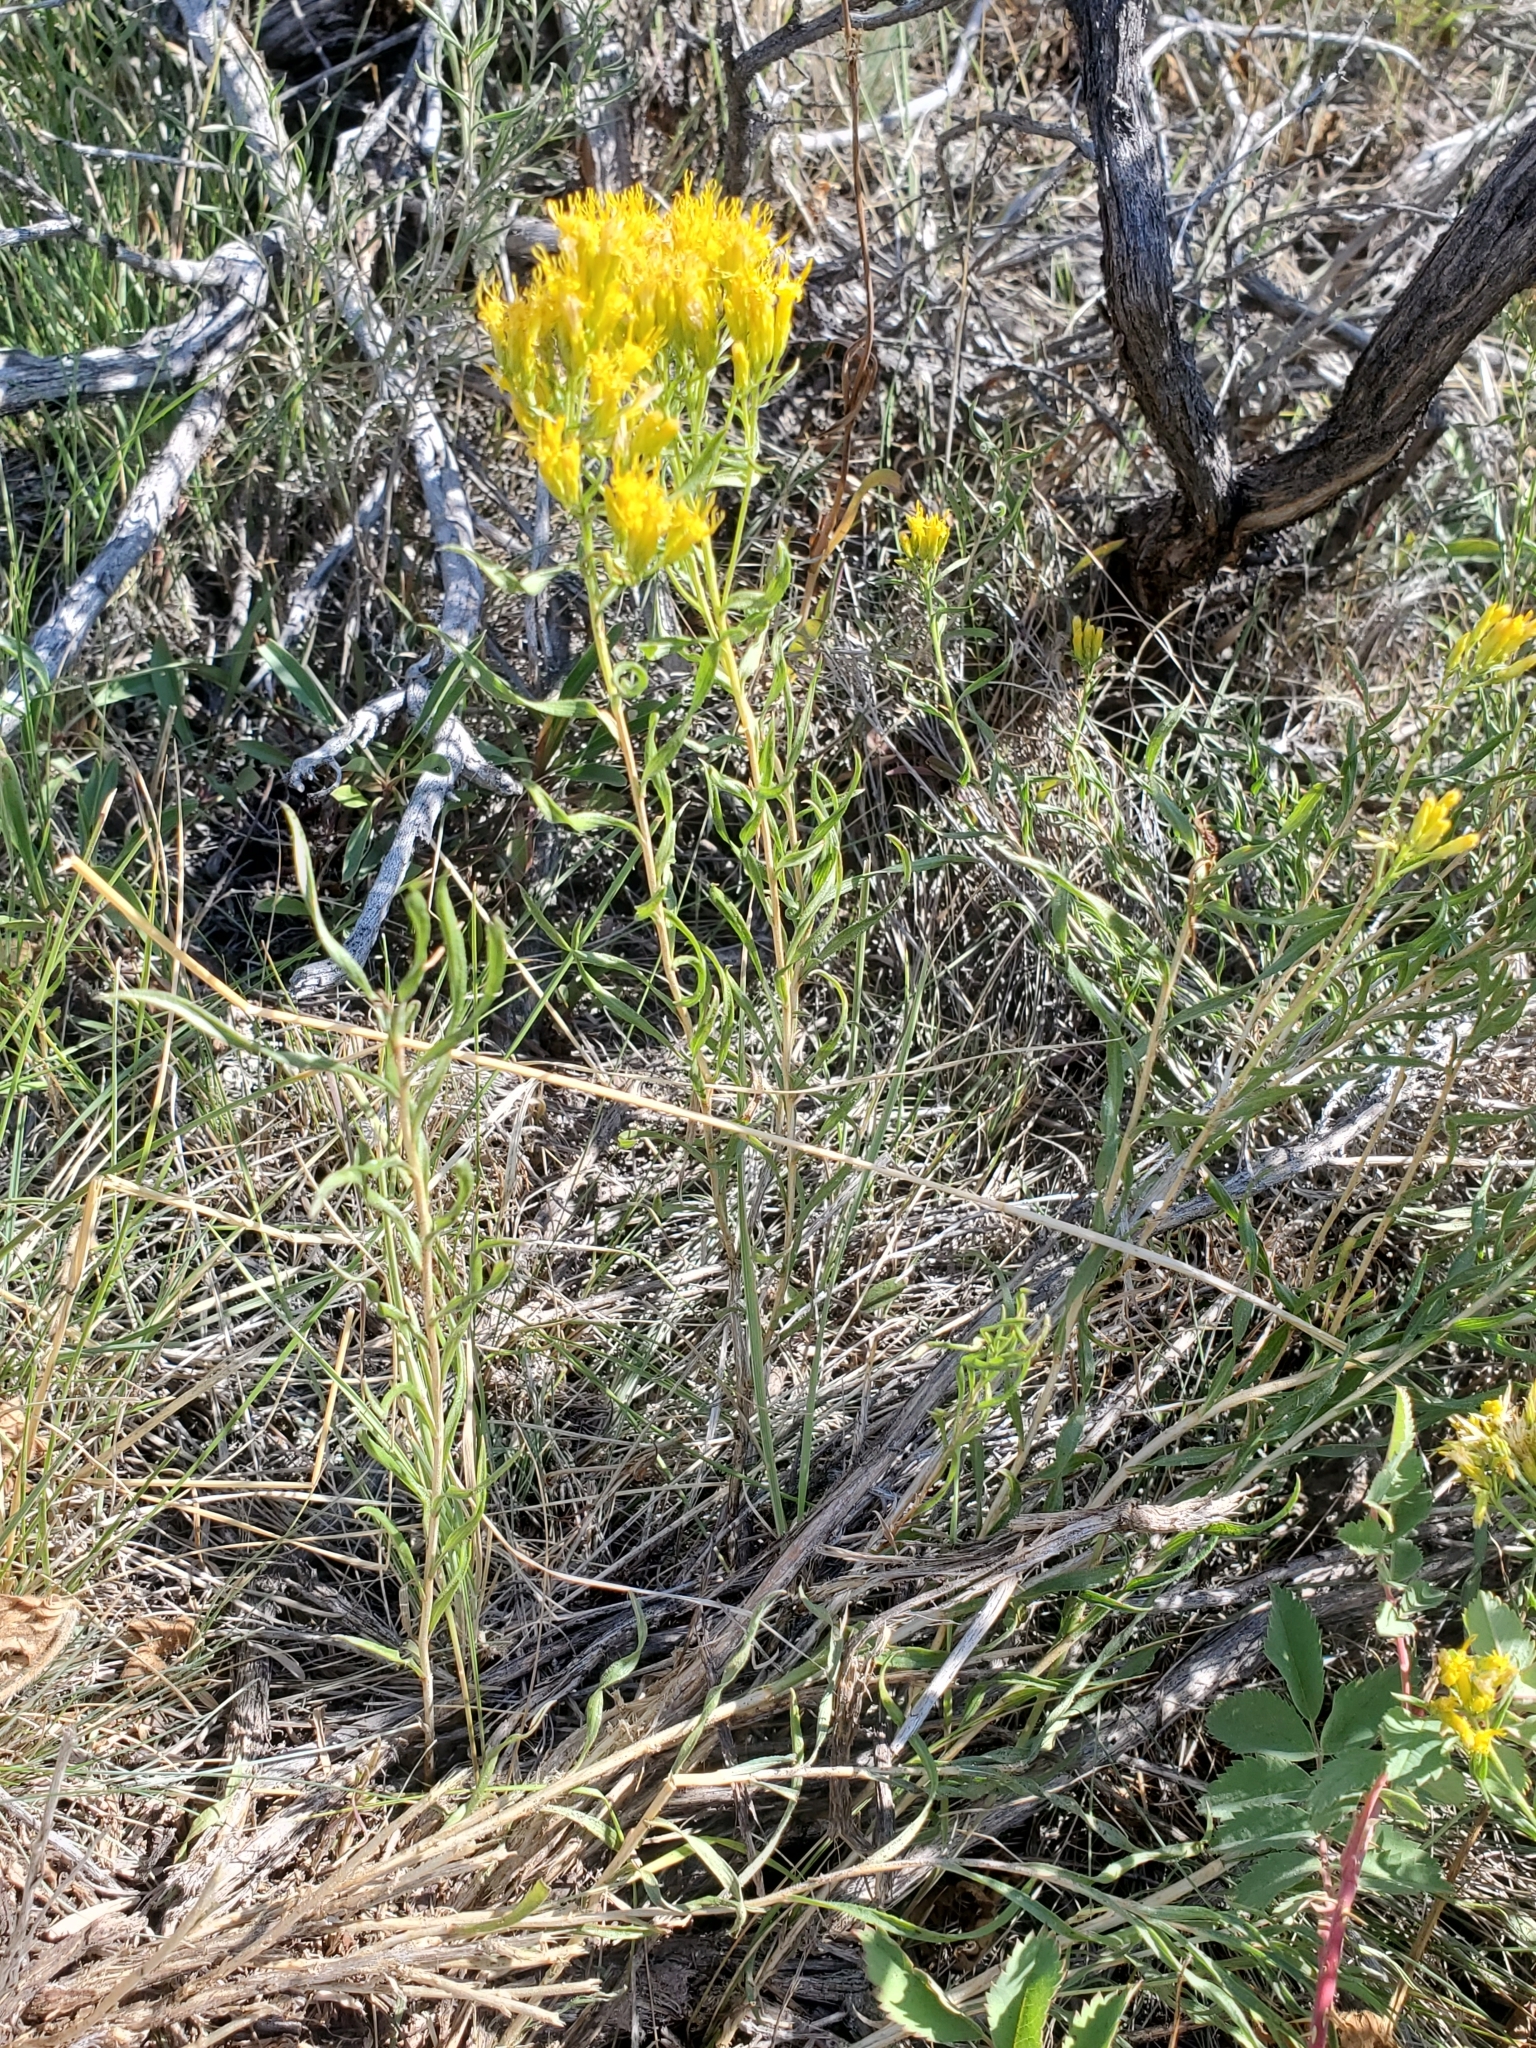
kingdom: Plantae
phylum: Tracheophyta
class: Magnoliopsida
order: Asterales
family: Asteraceae
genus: Chrysothamnus
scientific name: Chrysothamnus viscidiflorus
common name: Yellow rabbitbrush
